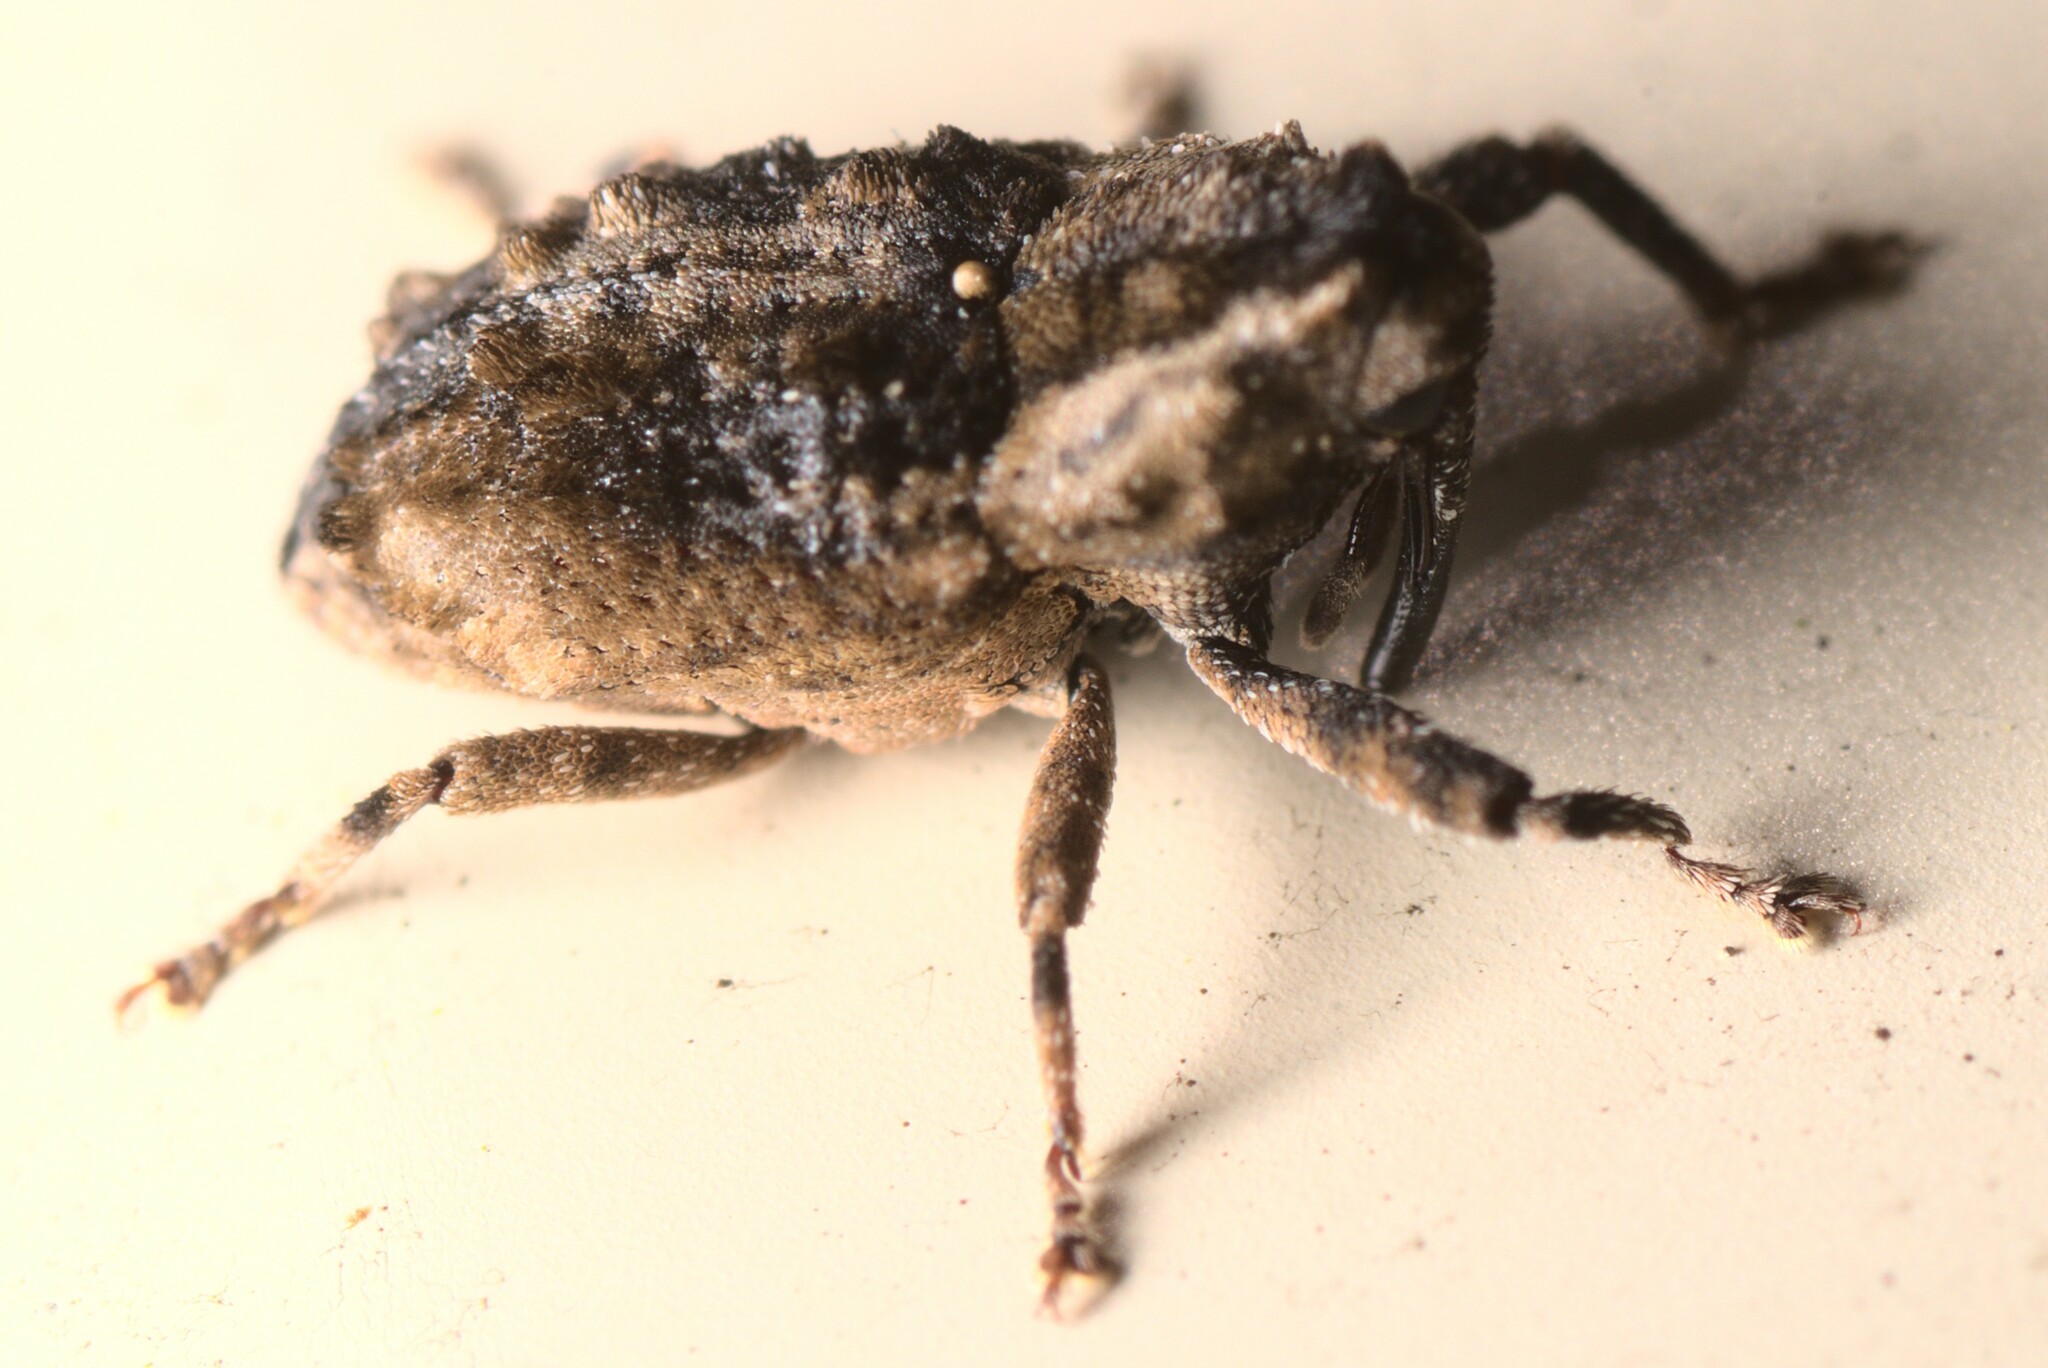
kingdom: Animalia
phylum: Arthropoda
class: Insecta
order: Coleoptera
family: Curculionidae
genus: Mecistostylus
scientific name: Mecistostylus douei
